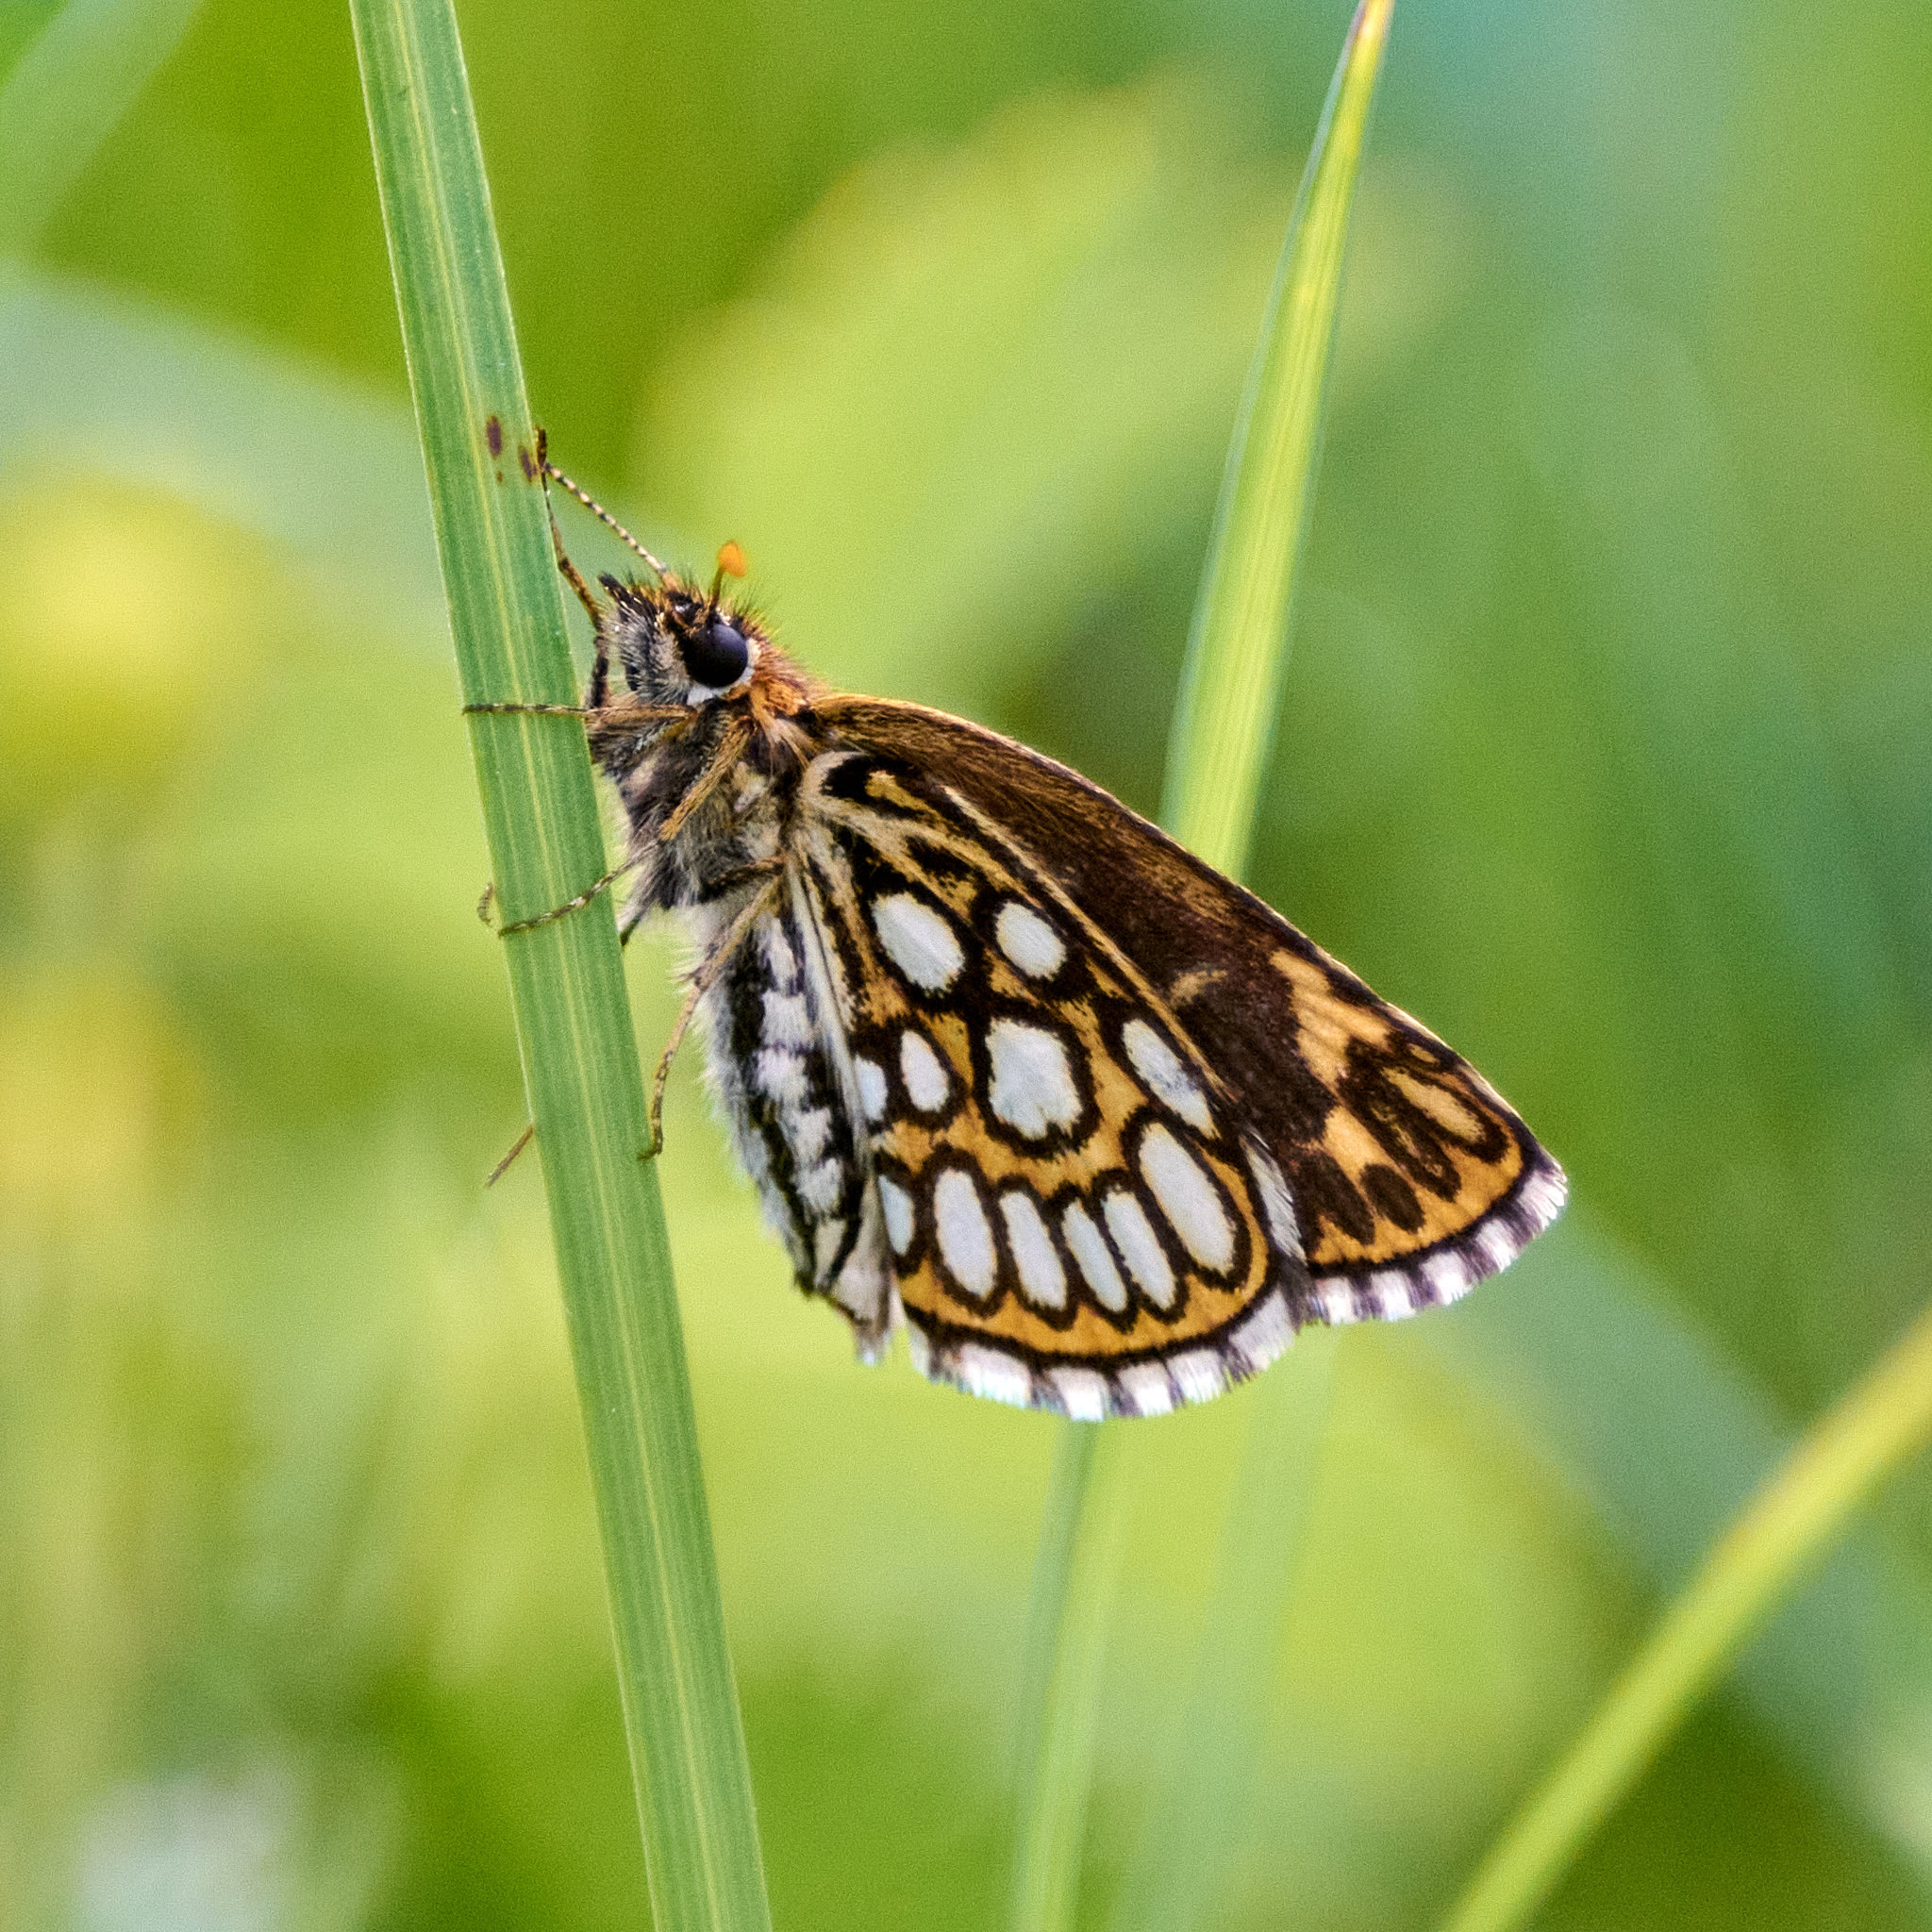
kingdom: Animalia
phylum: Arthropoda
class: Insecta
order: Lepidoptera
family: Hesperiidae
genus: Heteropterus
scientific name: Heteropterus morpheus
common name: Large chequered skipper
